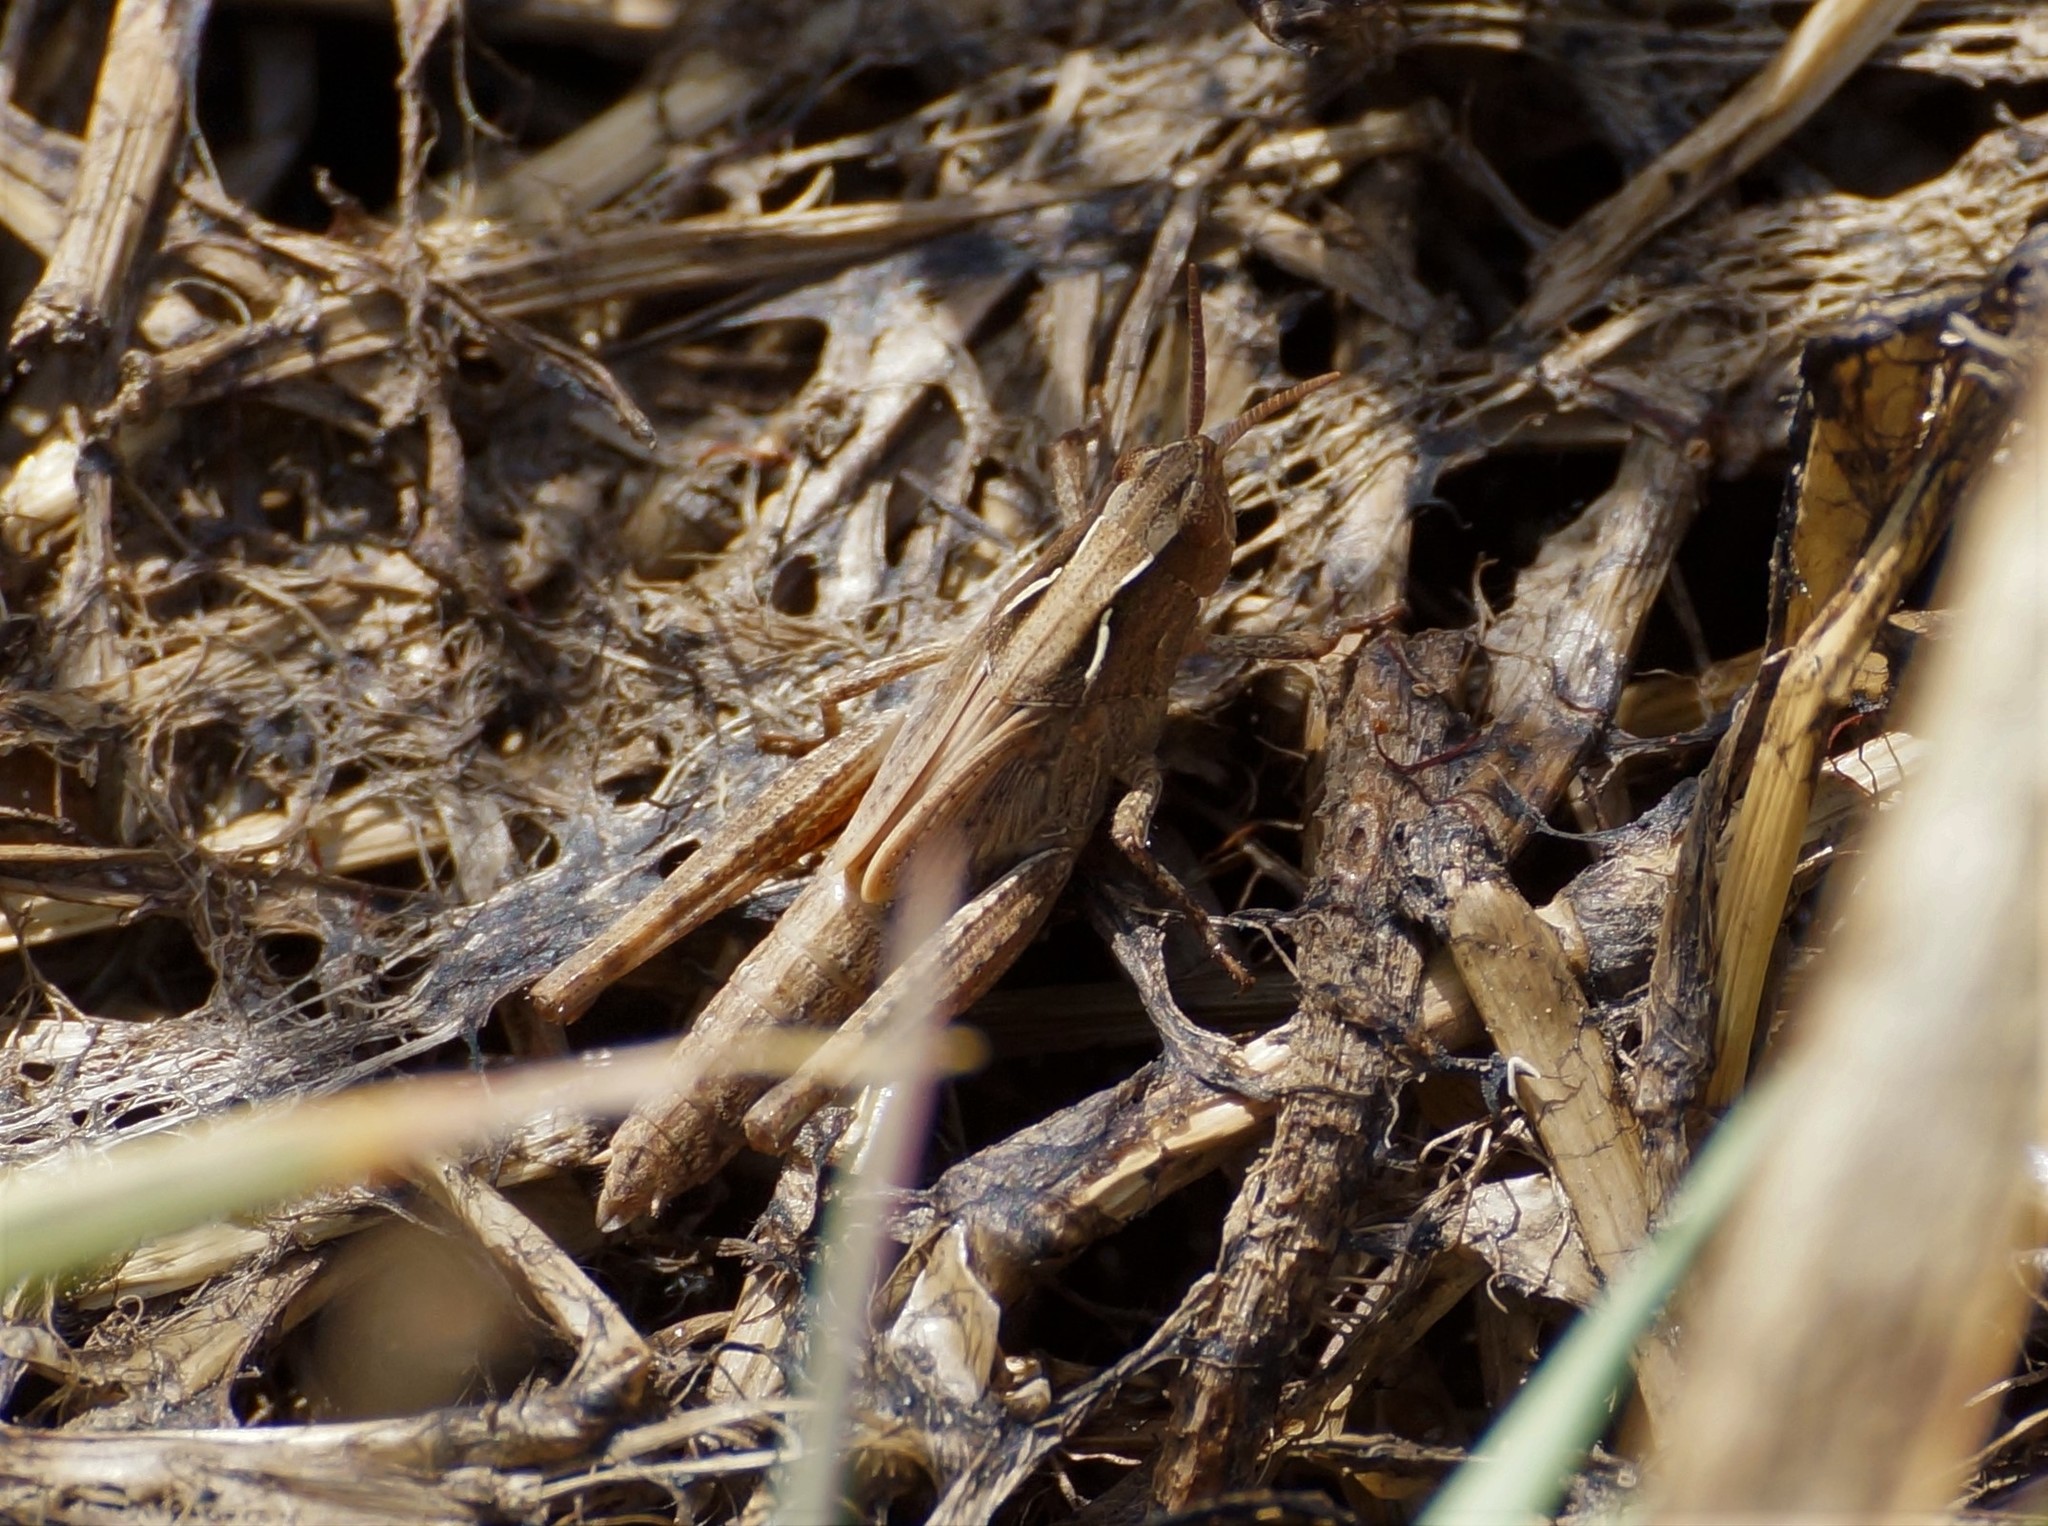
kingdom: Animalia
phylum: Arthropoda
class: Insecta
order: Orthoptera
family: Acrididae
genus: Schizobothrus
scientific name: Schizobothrus flavovittatus
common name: Disappearing grasshopper
